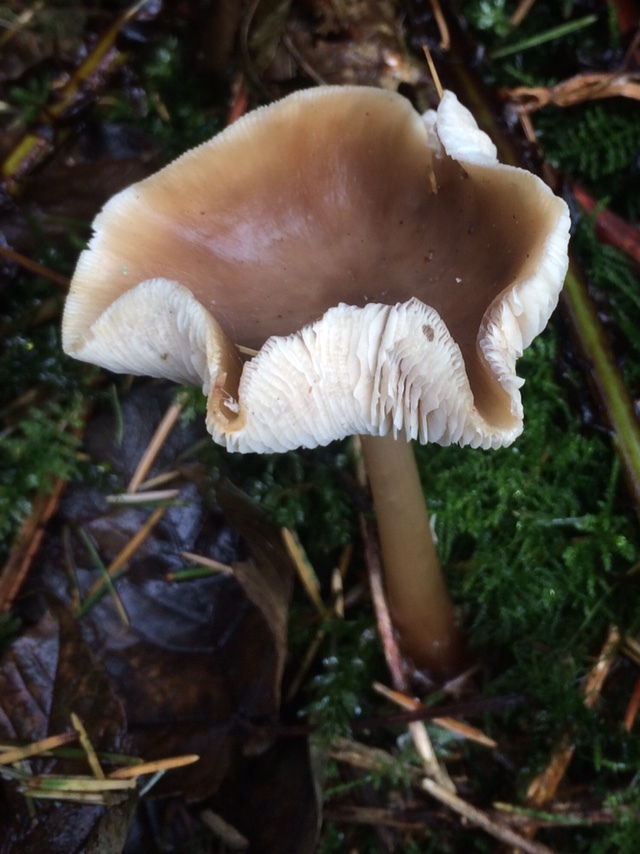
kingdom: Fungi
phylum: Basidiomycota
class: Agaricomycetes
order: Agaricales
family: Omphalotaceae
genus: Rhodocollybia
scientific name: Rhodocollybia butyracea
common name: Butter cap
